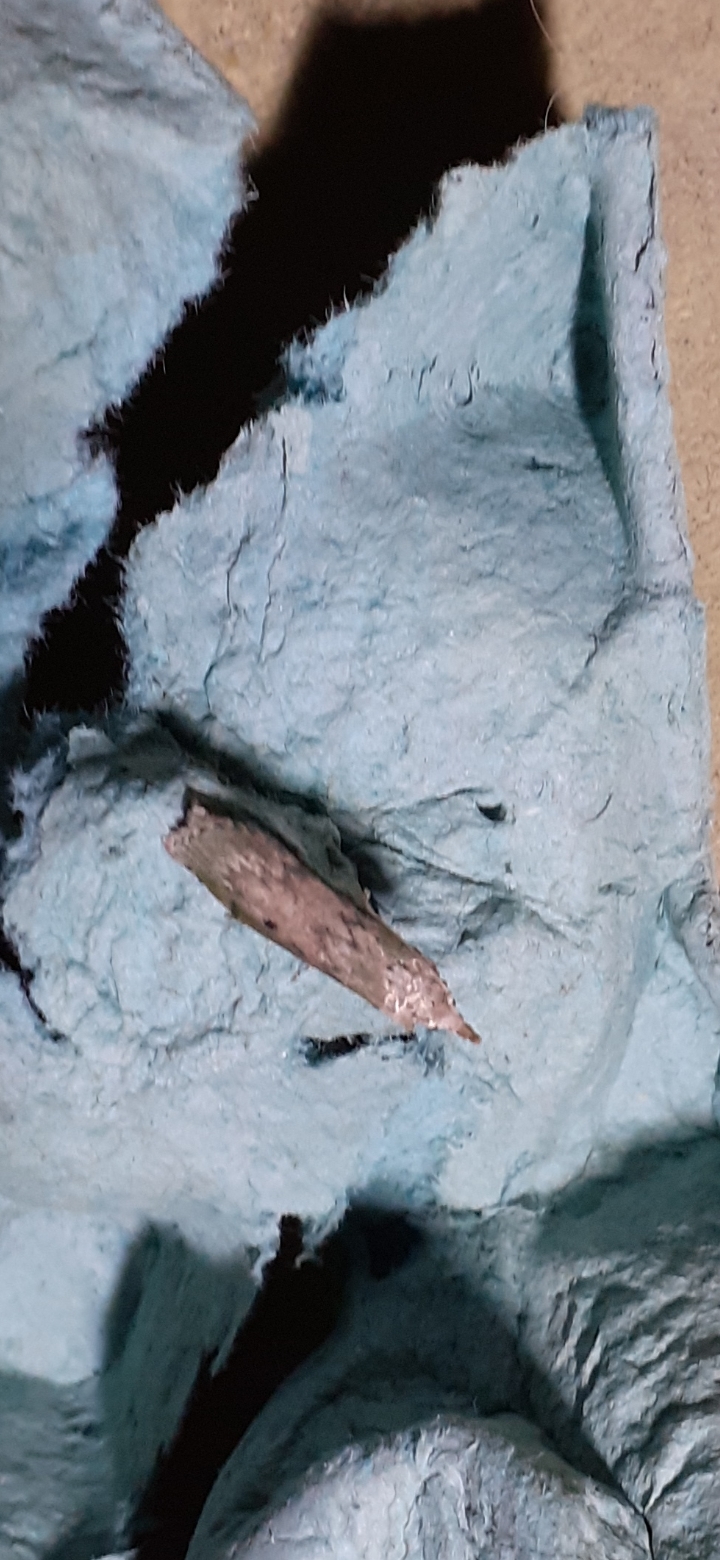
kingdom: Animalia
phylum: Arthropoda
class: Insecta
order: Lepidoptera
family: Pyralidae
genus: Aphomia
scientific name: Aphomia sociella
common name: Bee moth
